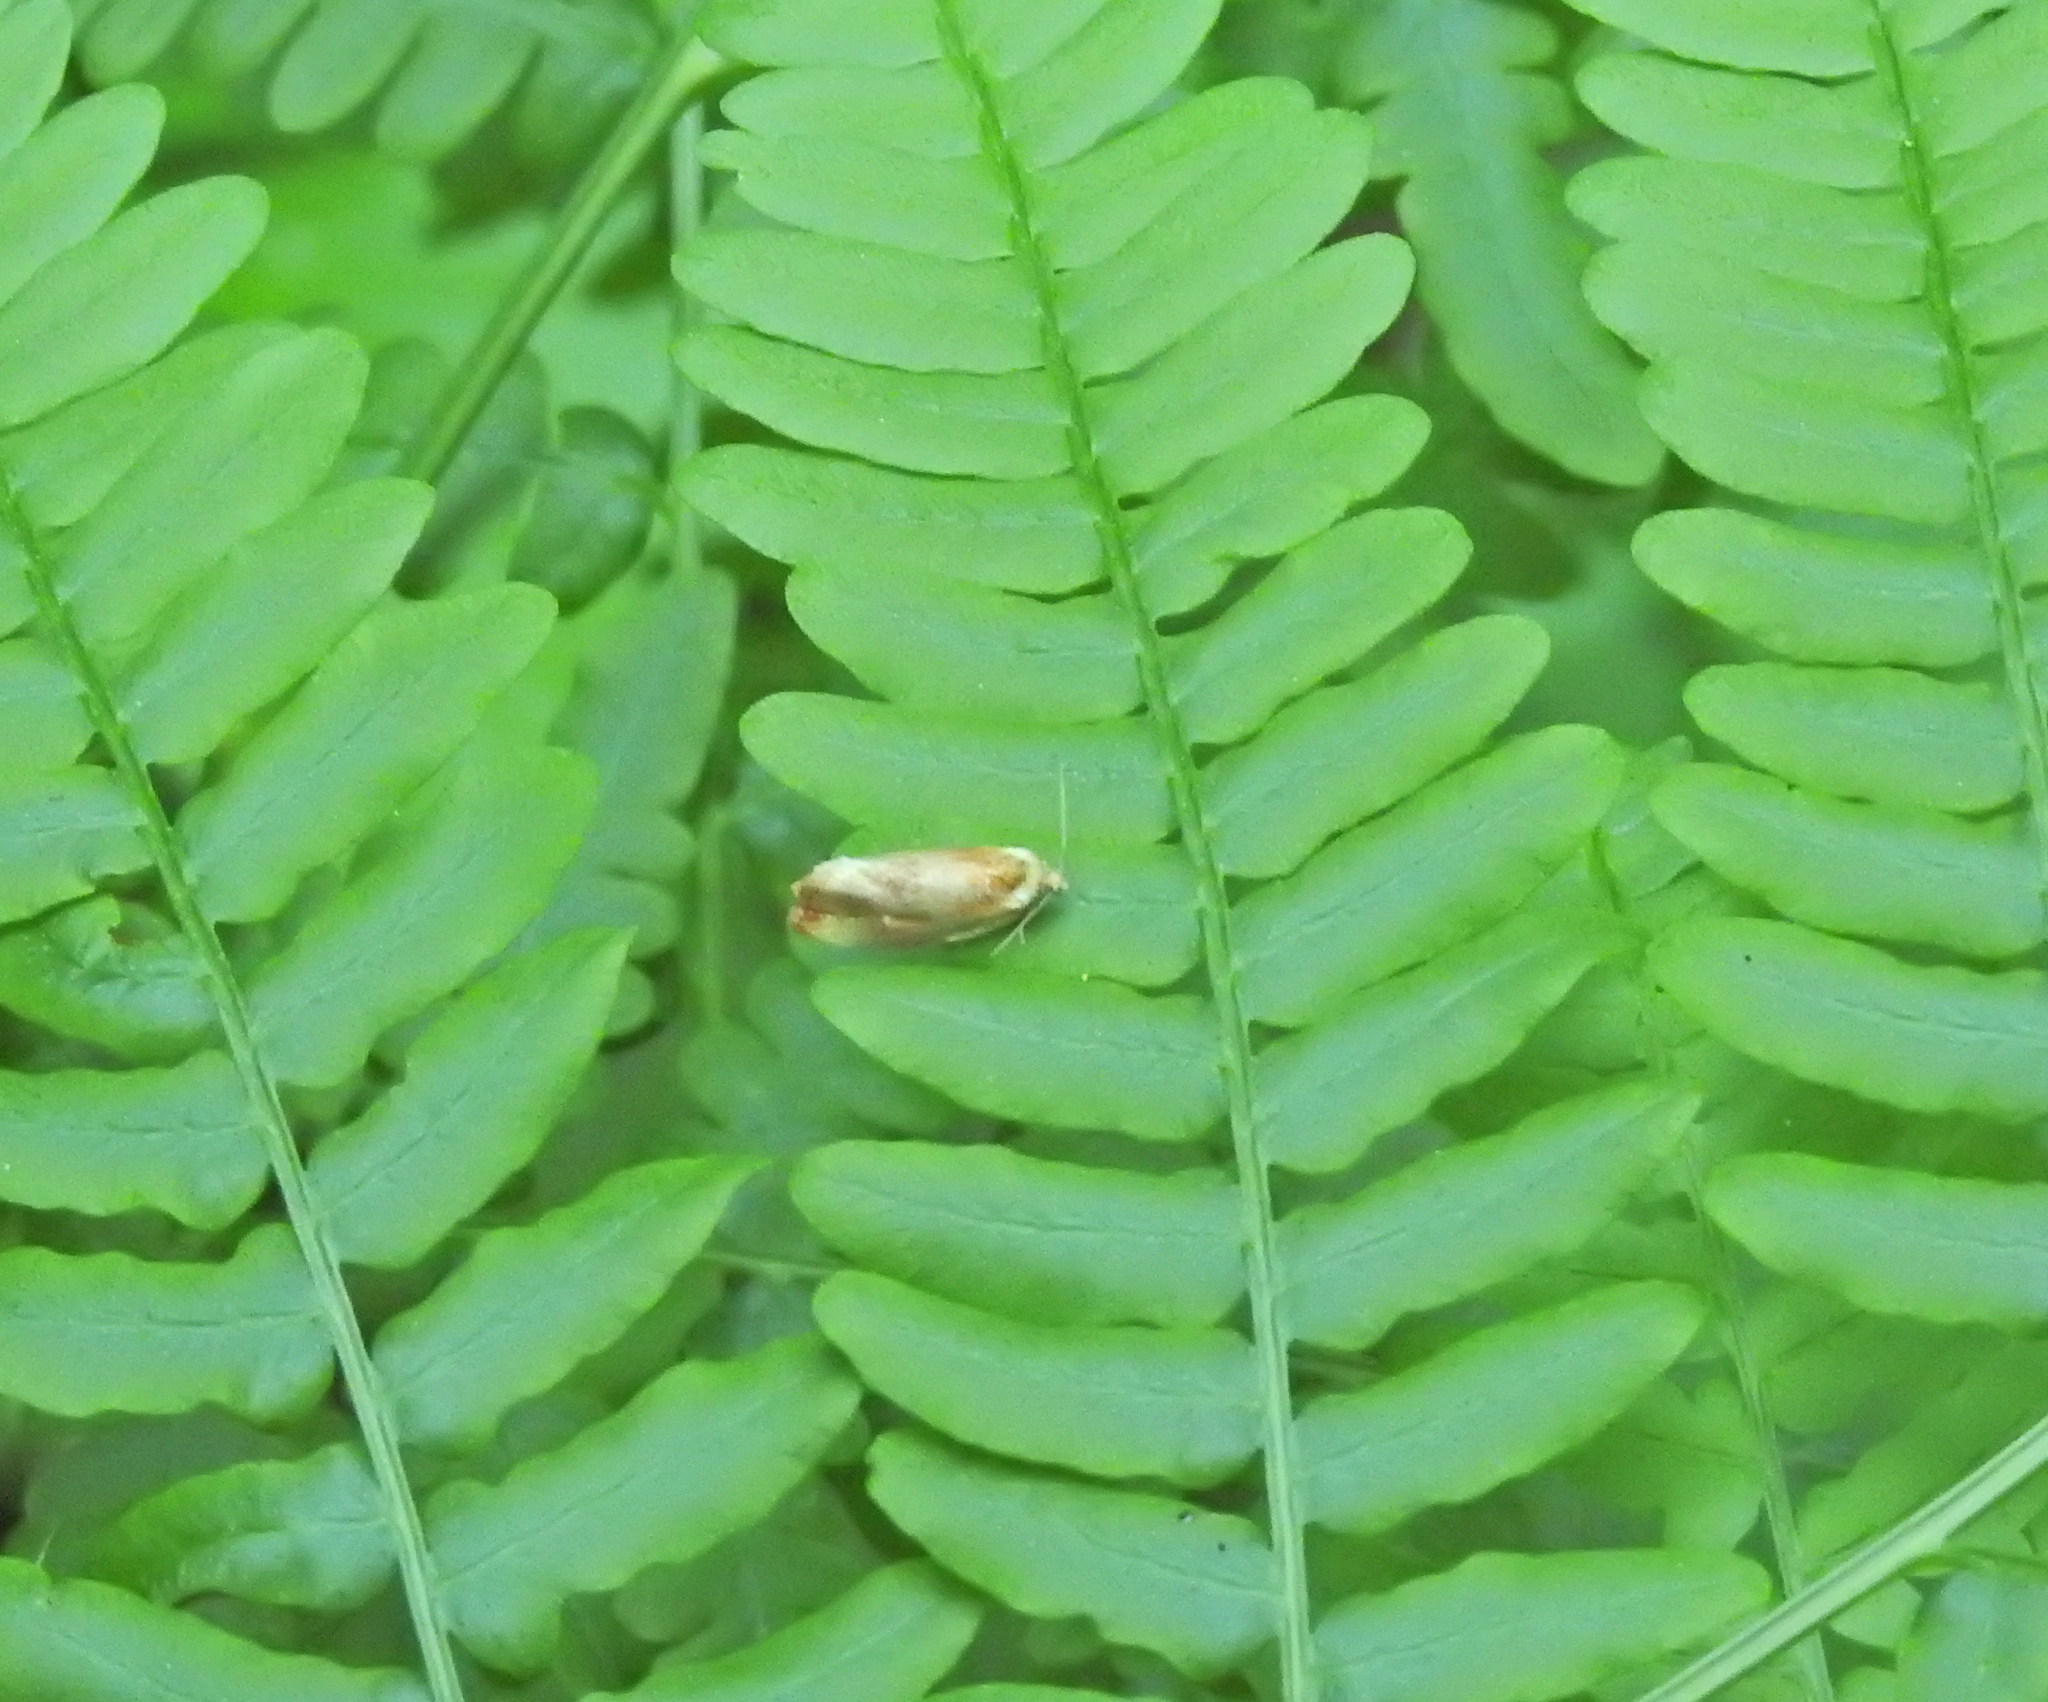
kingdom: Animalia
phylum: Arthropoda
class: Insecta
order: Lepidoptera
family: Tortricidae
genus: Eulia
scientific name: Eulia ministrana
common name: Brassy twist
